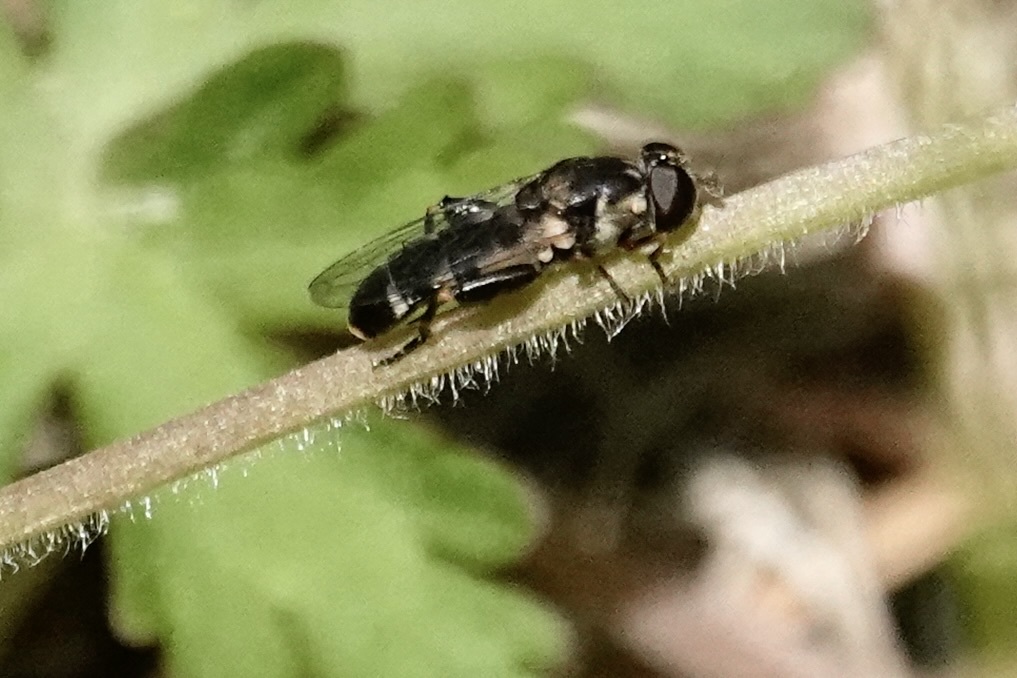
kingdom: Animalia
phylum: Arthropoda
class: Insecta
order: Diptera
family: Syrphidae
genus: Syritta
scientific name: Syritta pipiens
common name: Hover fly
